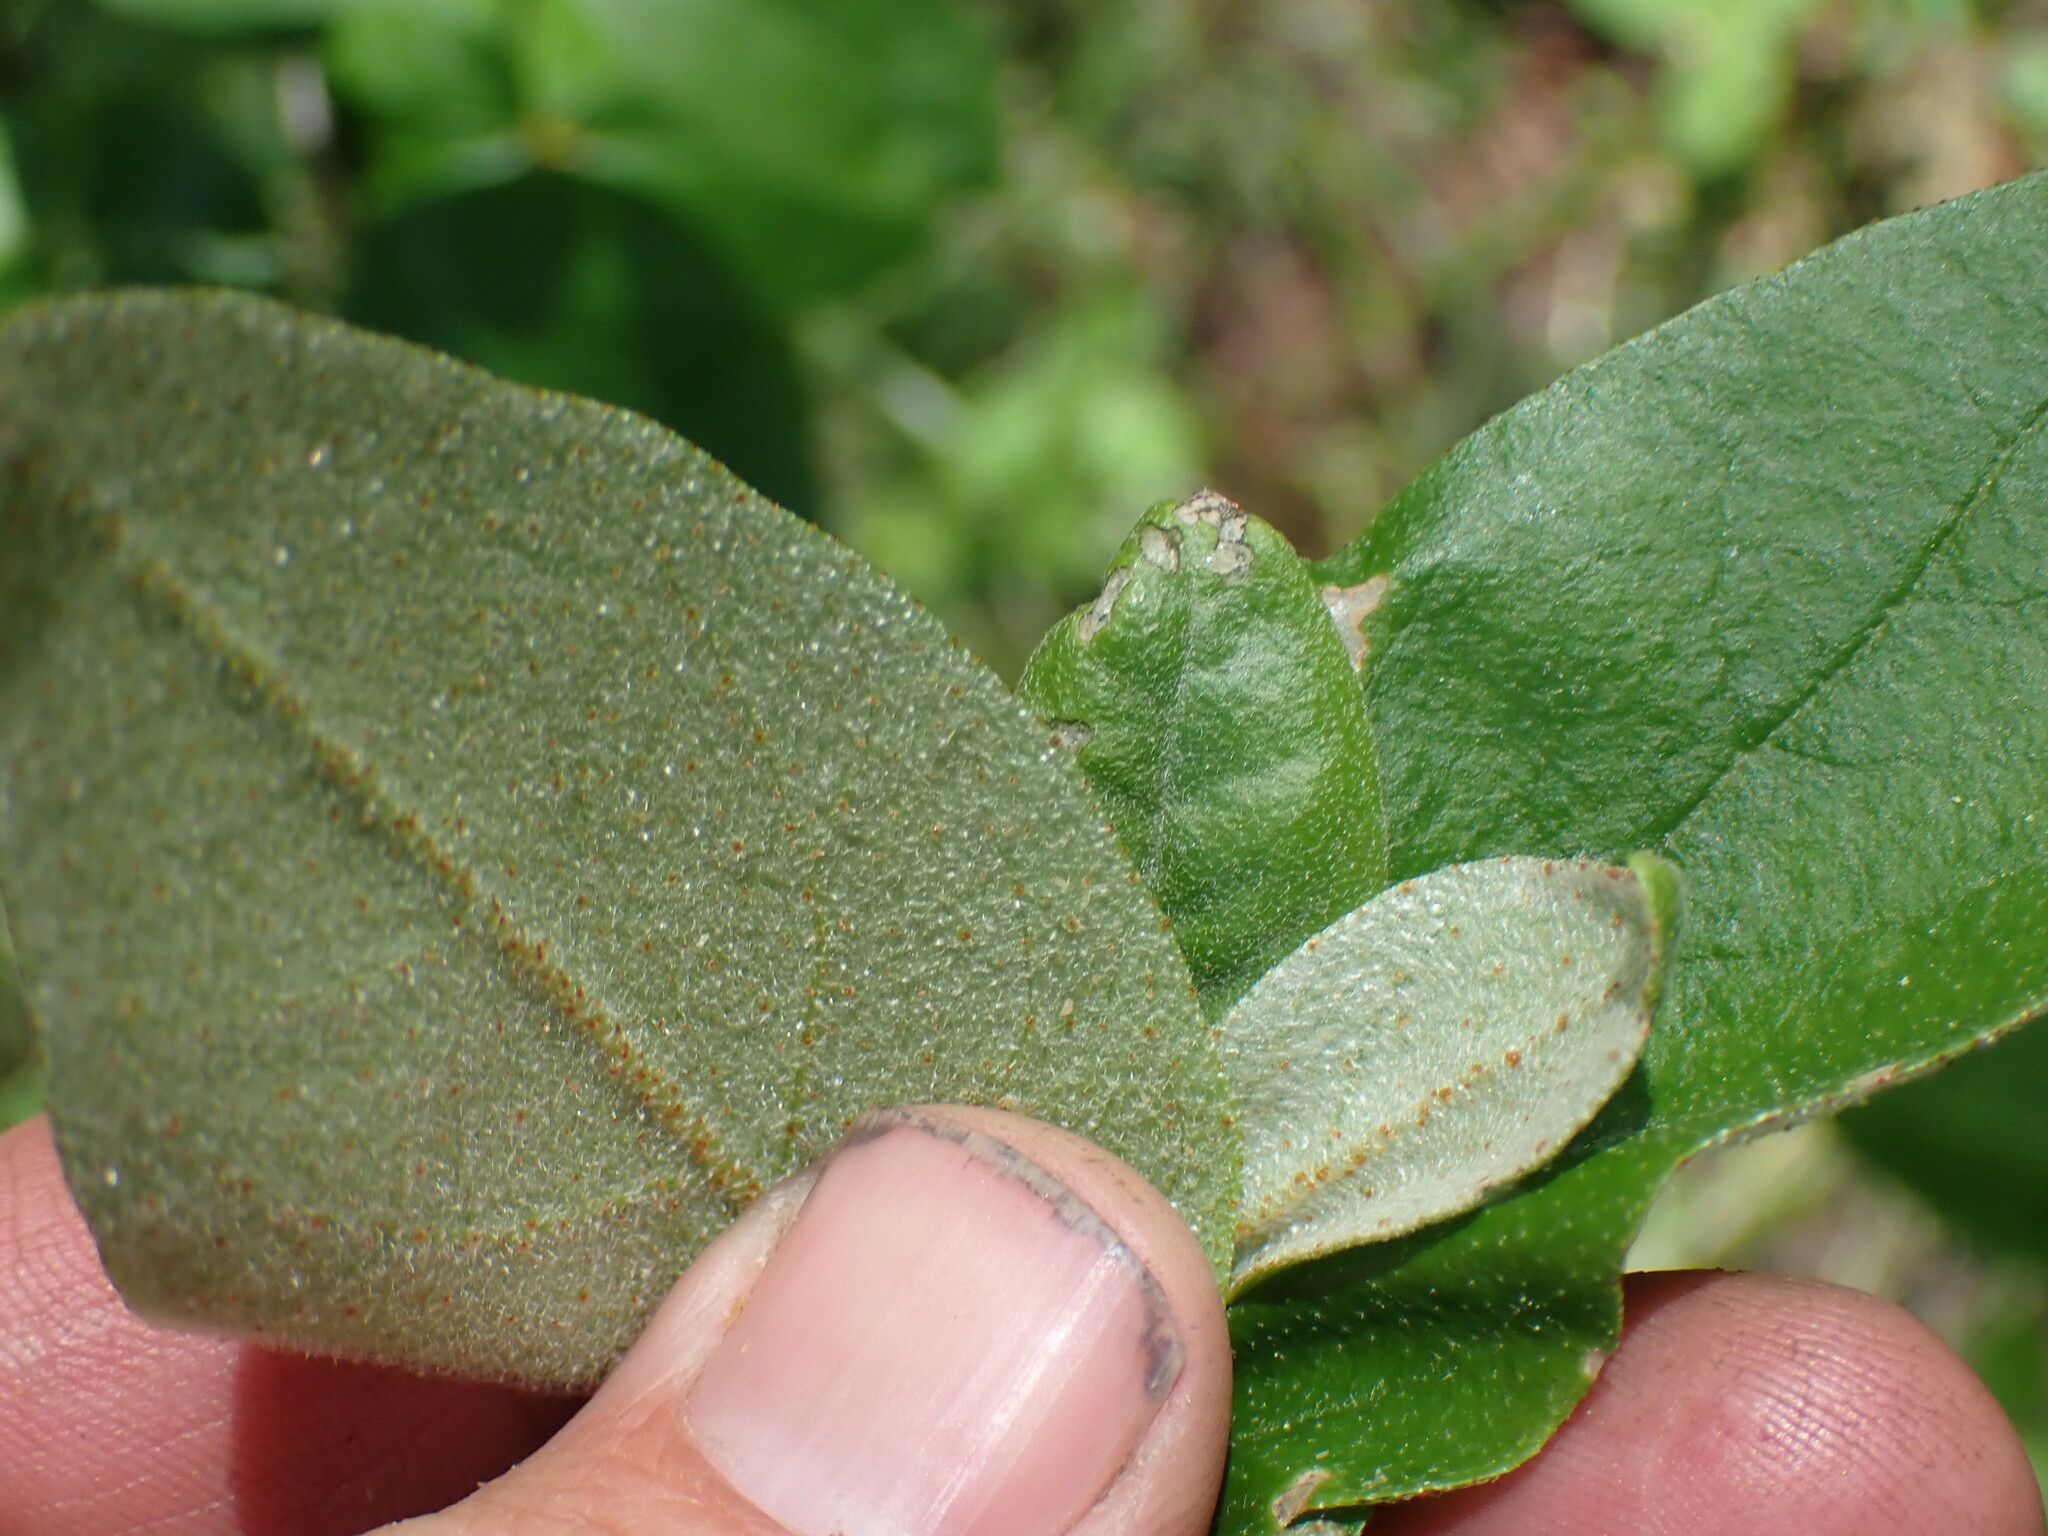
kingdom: Plantae
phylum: Tracheophyta
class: Magnoliopsida
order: Rosales
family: Elaeagnaceae
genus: Shepherdia
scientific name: Shepherdia canadensis
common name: Soapberry
